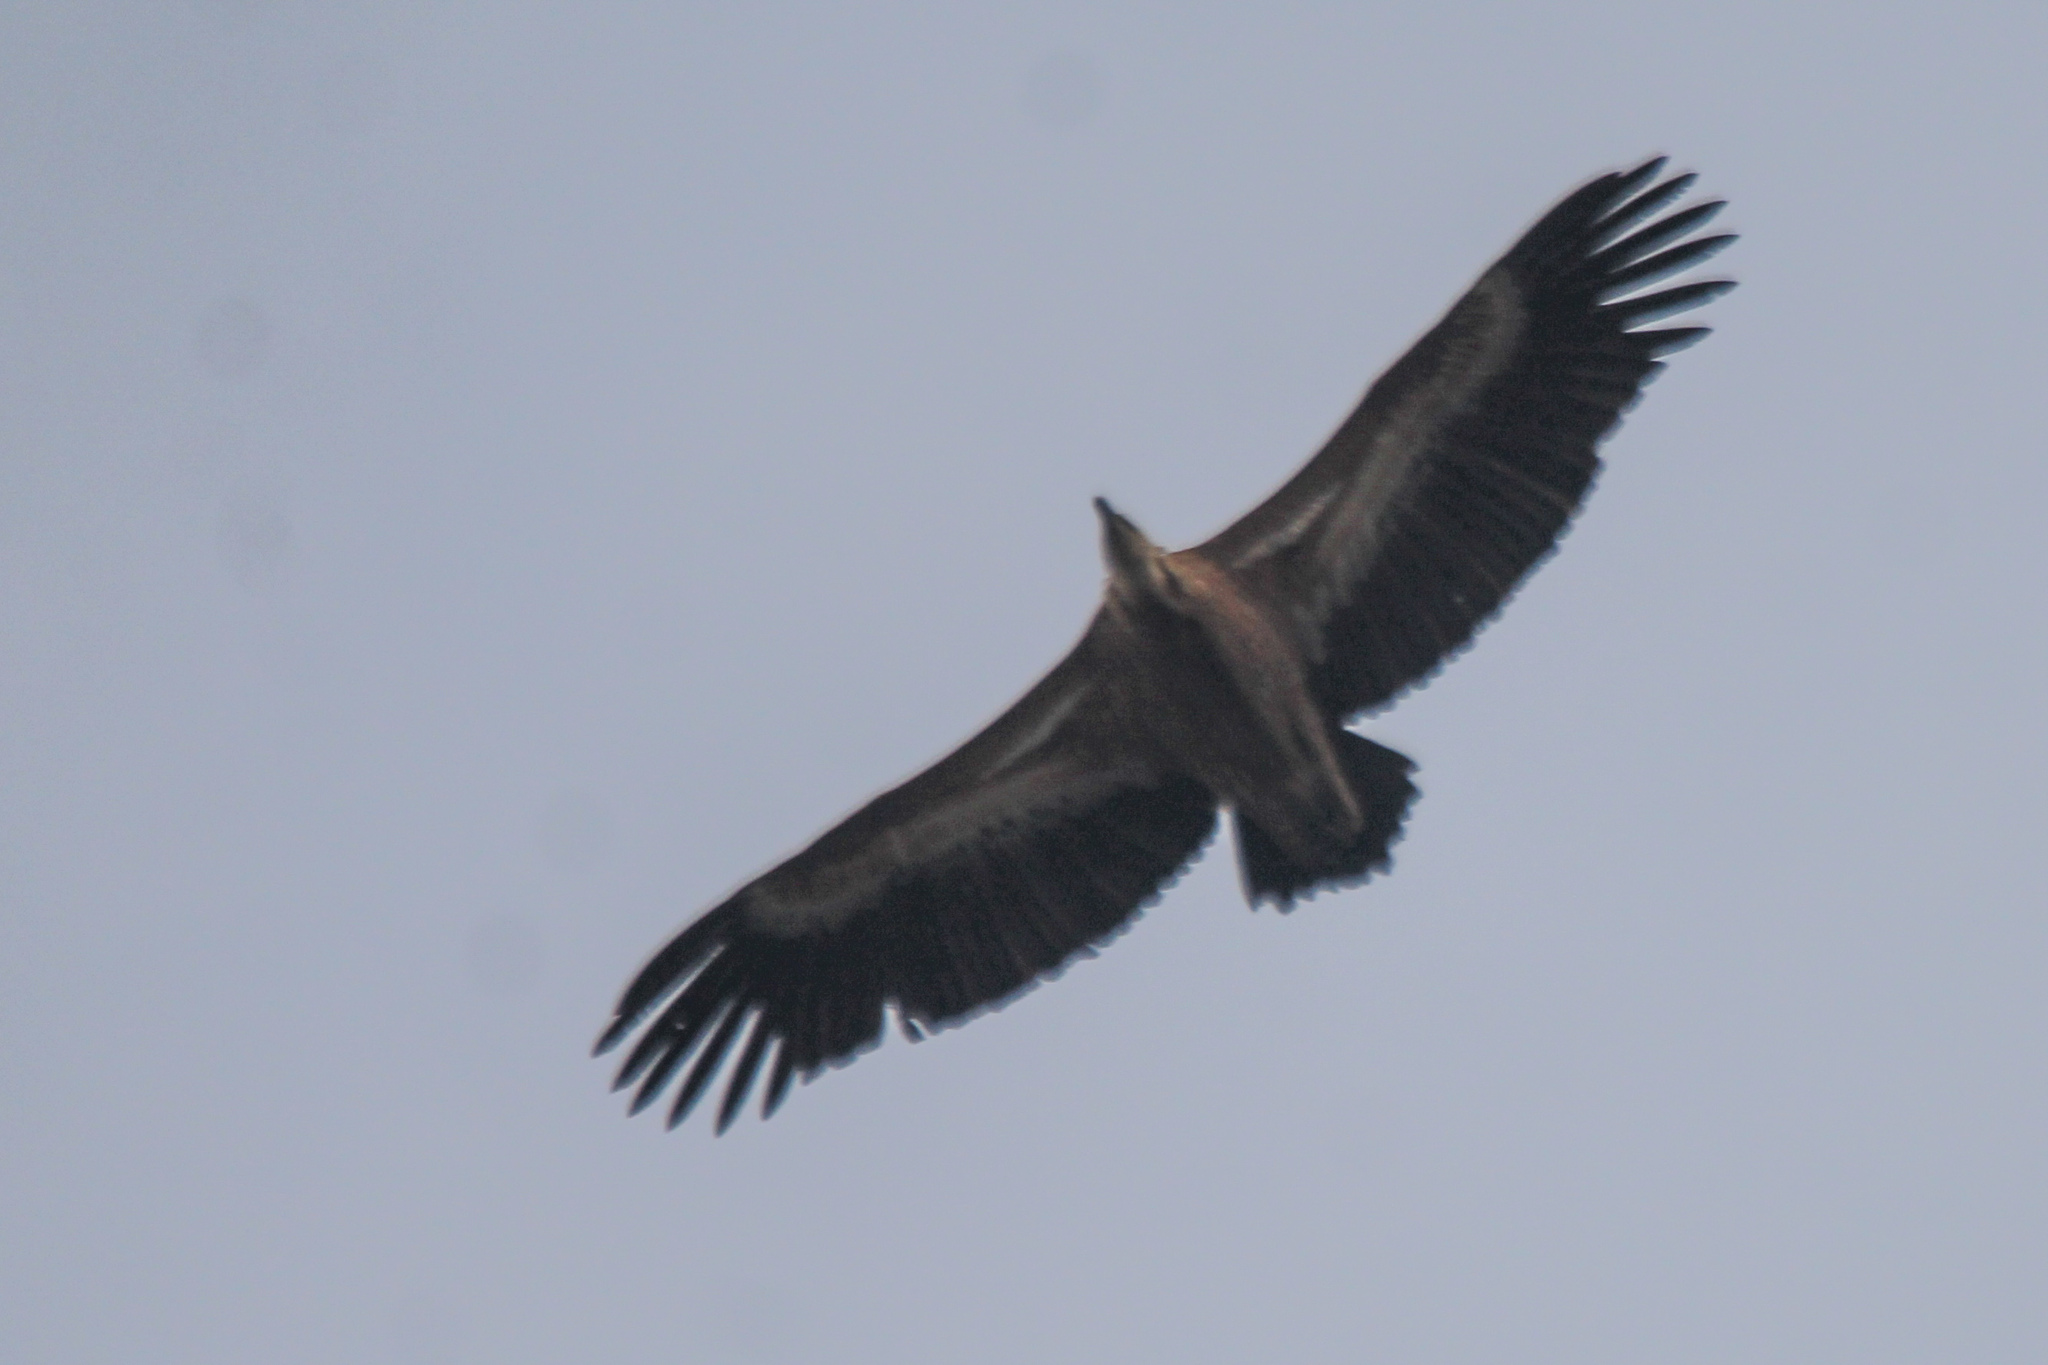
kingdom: Animalia
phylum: Chordata
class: Aves
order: Accipitriformes
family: Accipitridae
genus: Gyps
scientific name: Gyps fulvus
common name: Griffon vulture
